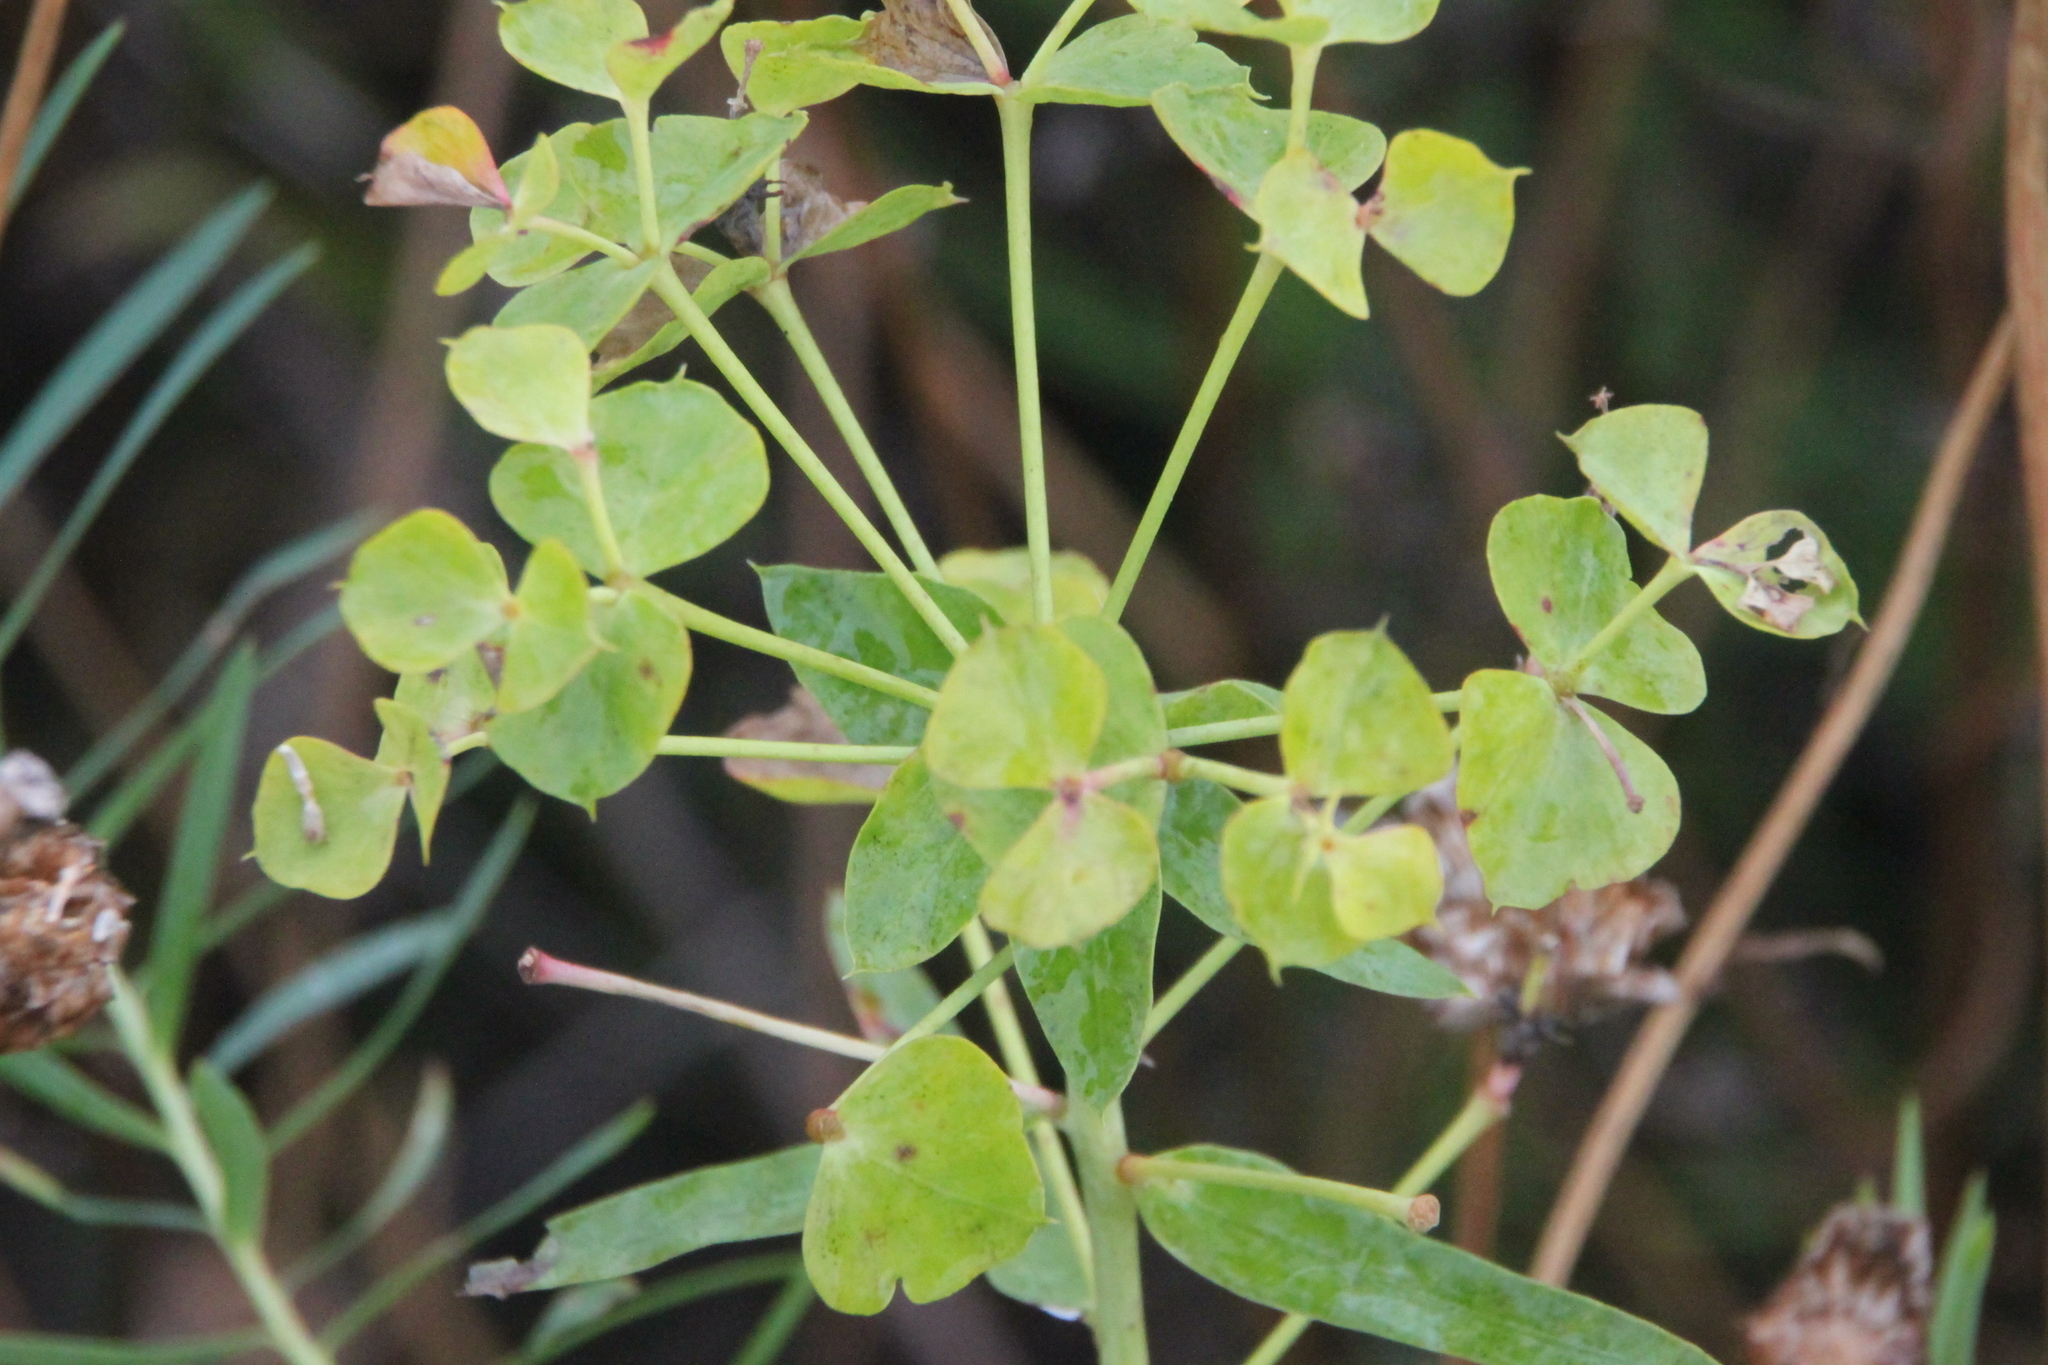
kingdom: Plantae
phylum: Tracheophyta
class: Magnoliopsida
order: Malpighiales
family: Euphorbiaceae
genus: Euphorbia
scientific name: Euphorbia virgata
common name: Leafy spurge
